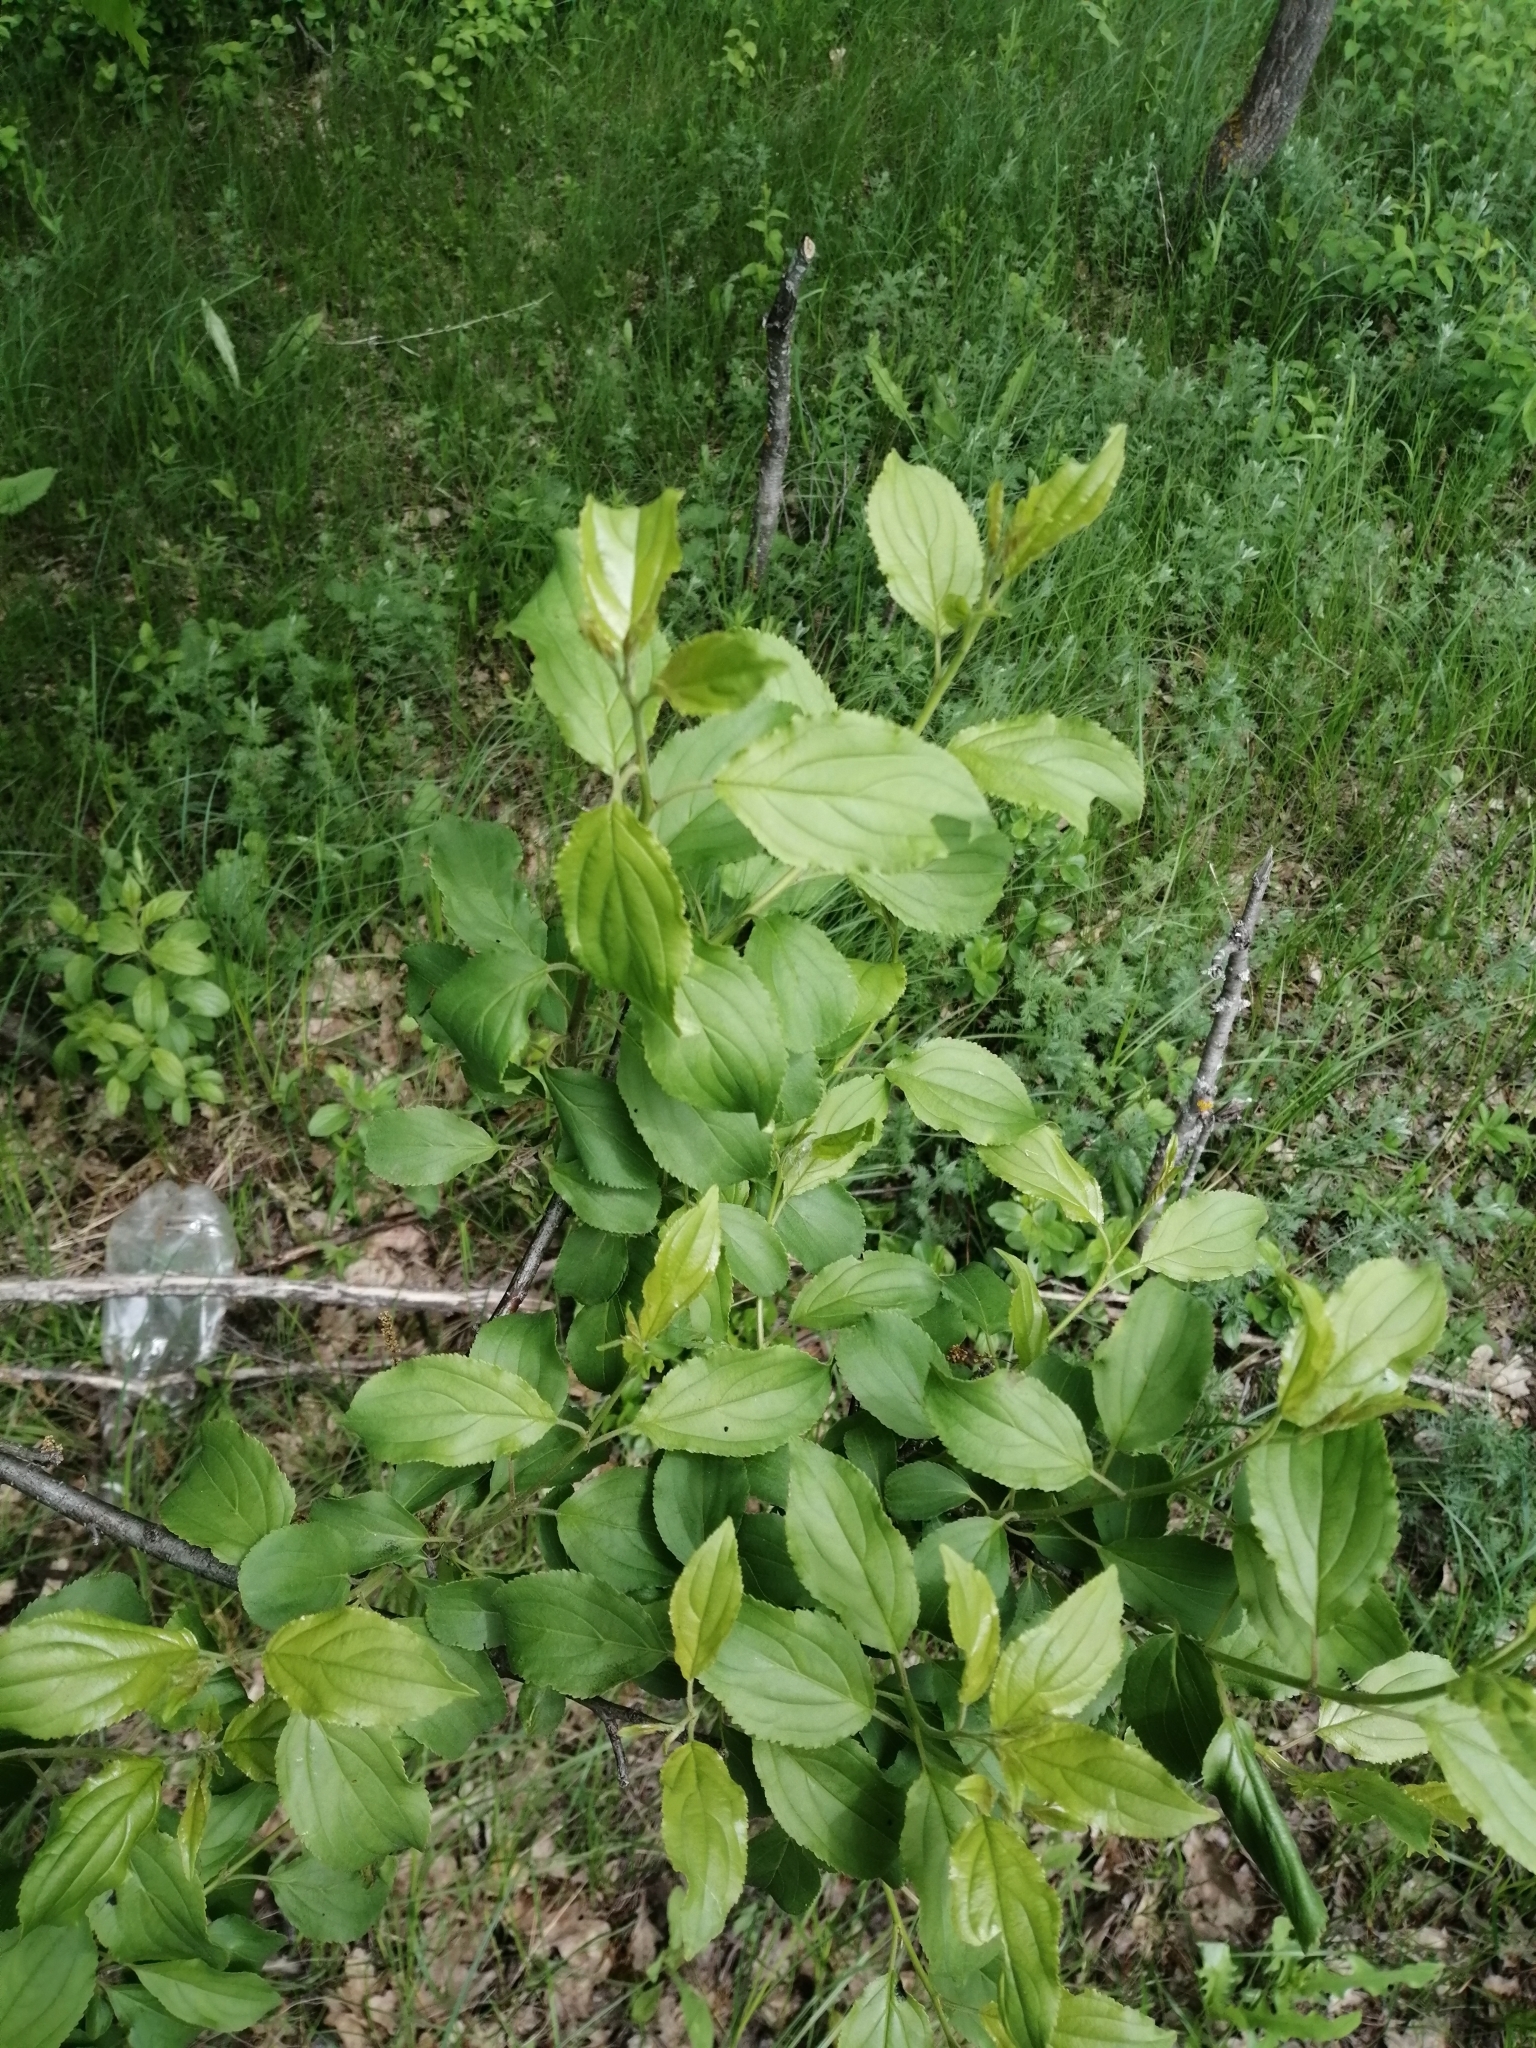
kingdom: Plantae
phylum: Tracheophyta
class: Magnoliopsida
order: Rosales
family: Rhamnaceae
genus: Rhamnus
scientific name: Rhamnus cathartica
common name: Common buckthorn
